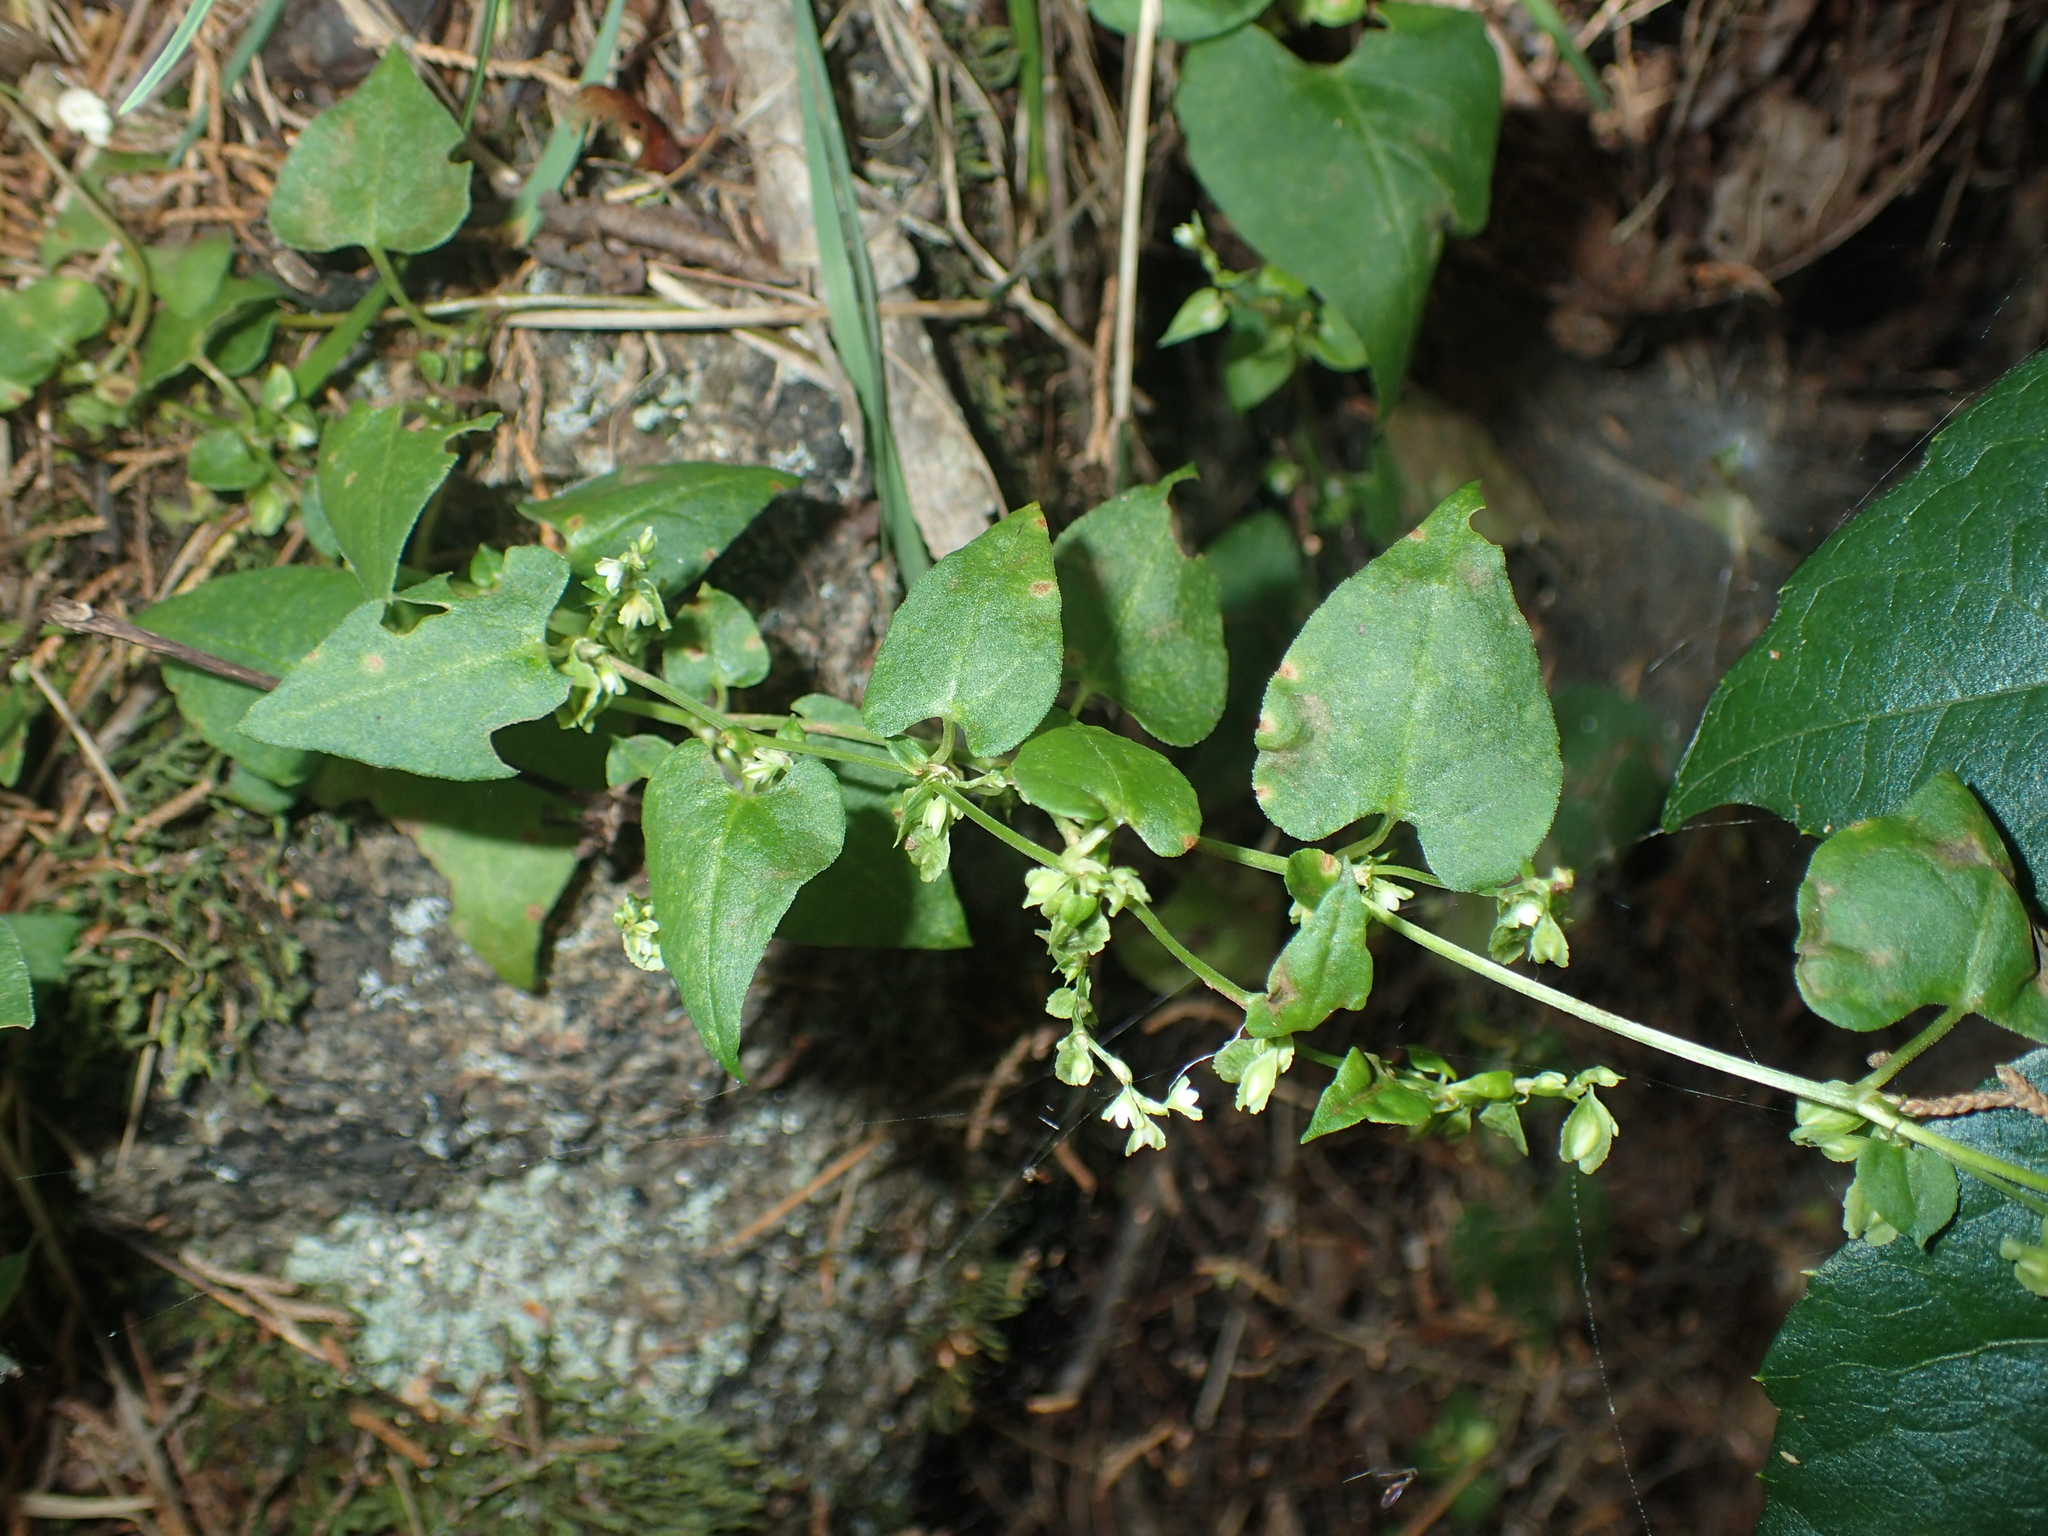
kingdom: Plantae
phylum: Tracheophyta
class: Magnoliopsida
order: Caryophyllales
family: Polygonaceae
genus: Fallopia
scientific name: Fallopia scandens
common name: Climbing false buckwheat
